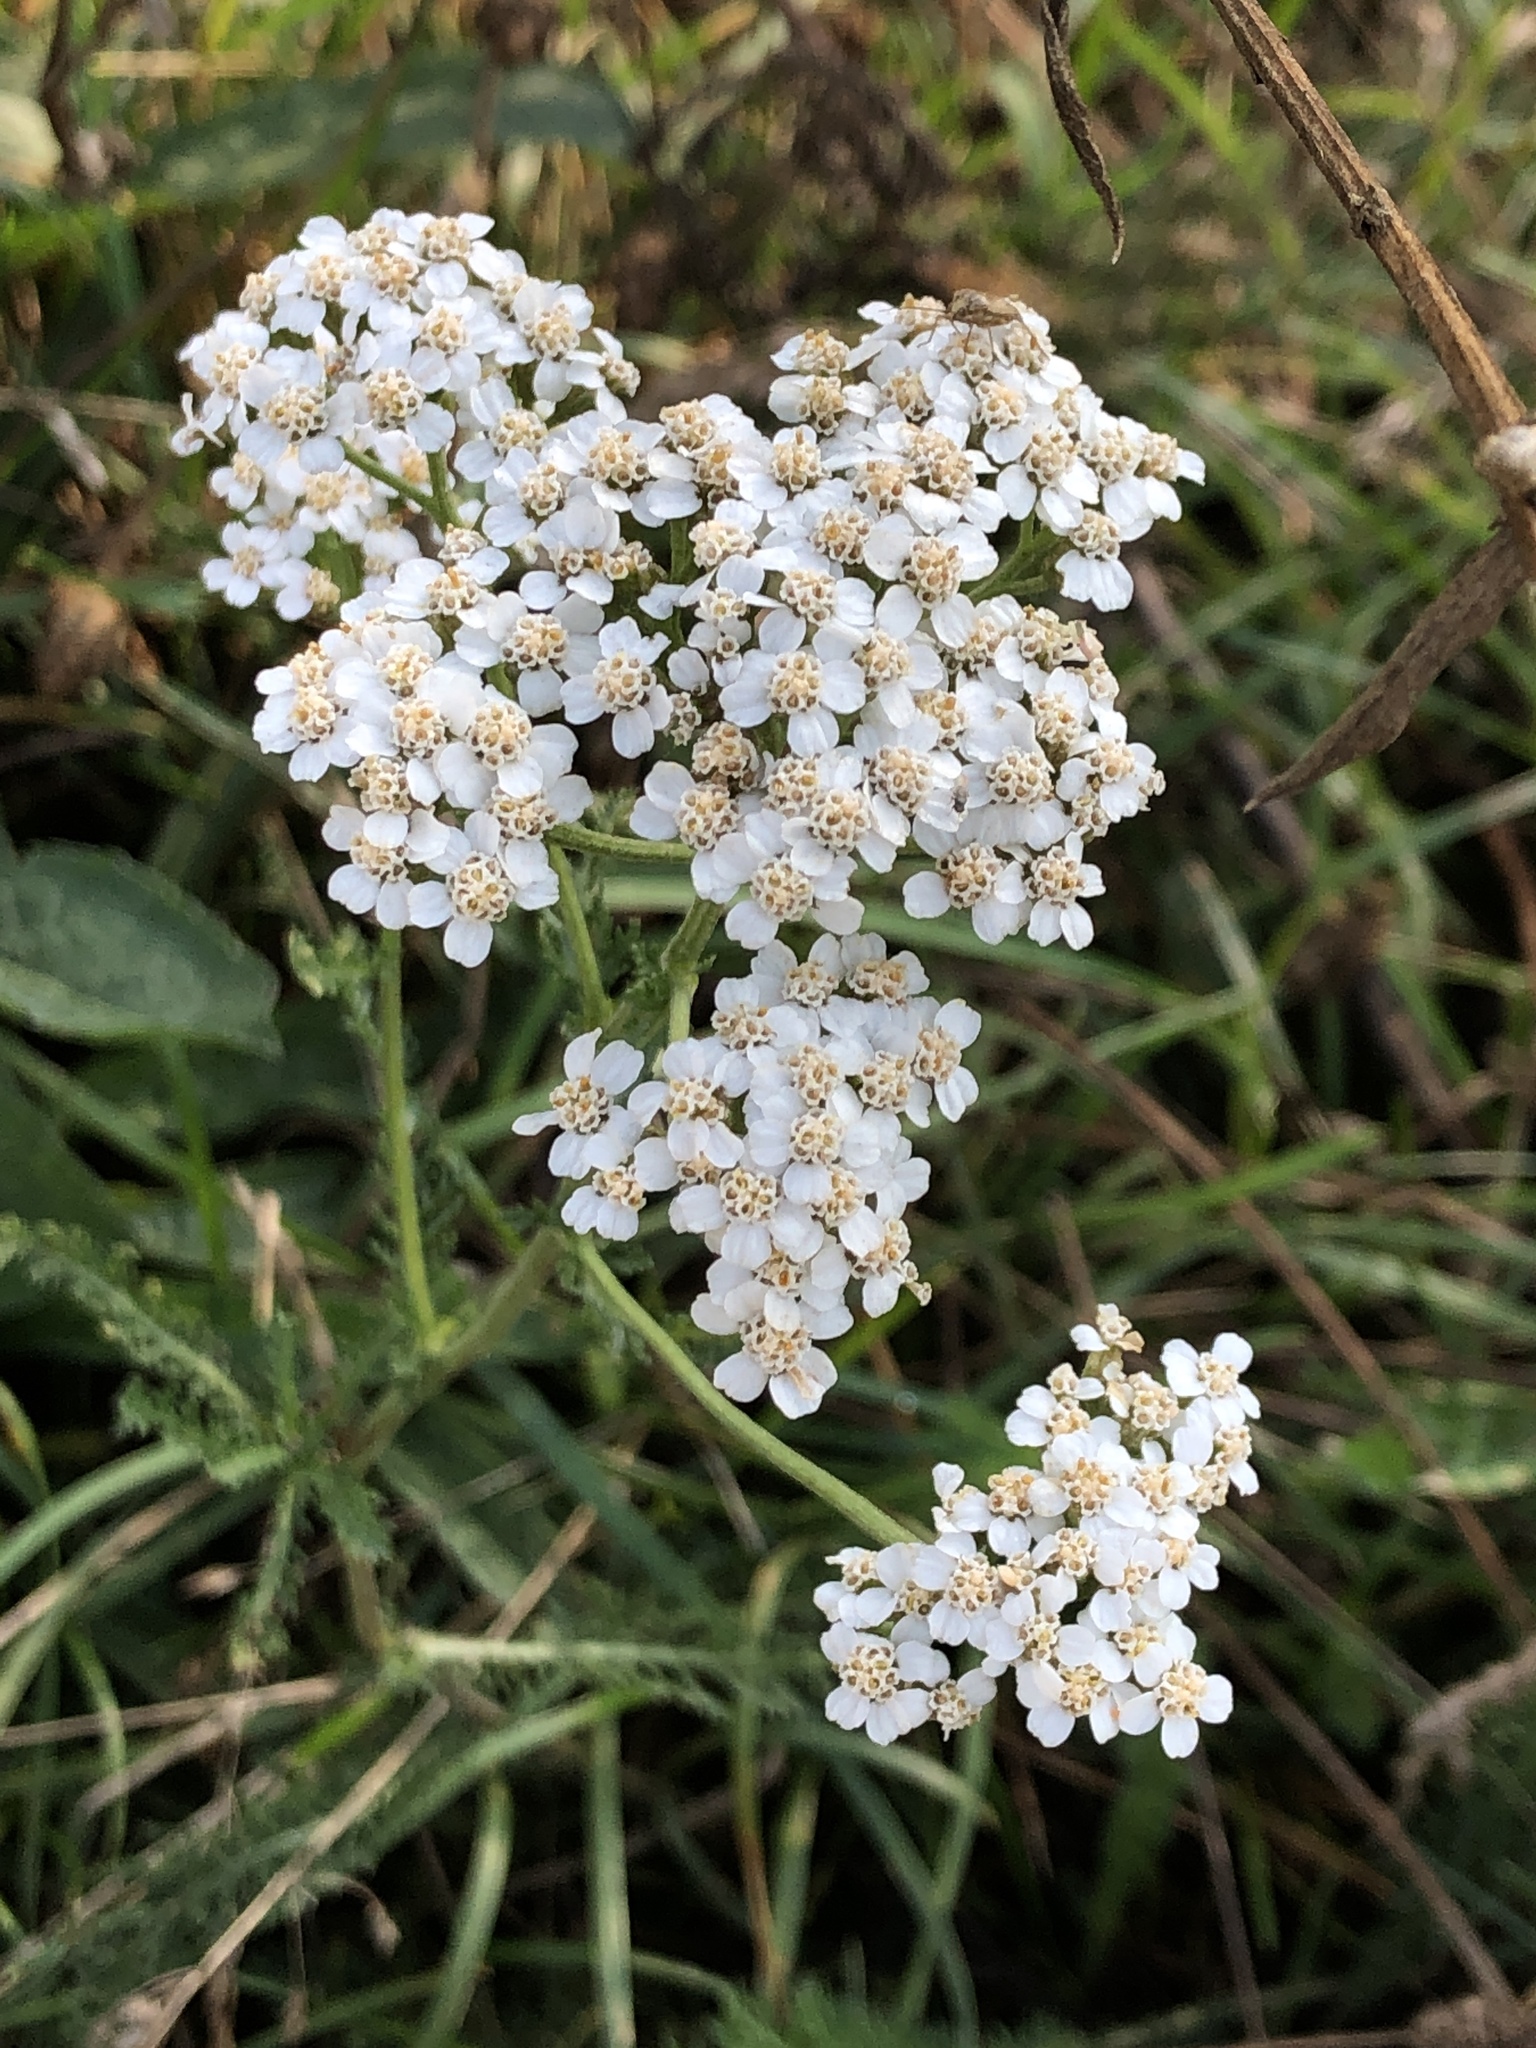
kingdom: Plantae
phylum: Tracheophyta
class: Magnoliopsida
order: Asterales
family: Asteraceae
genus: Achillea
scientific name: Achillea millefolium
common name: Yarrow
